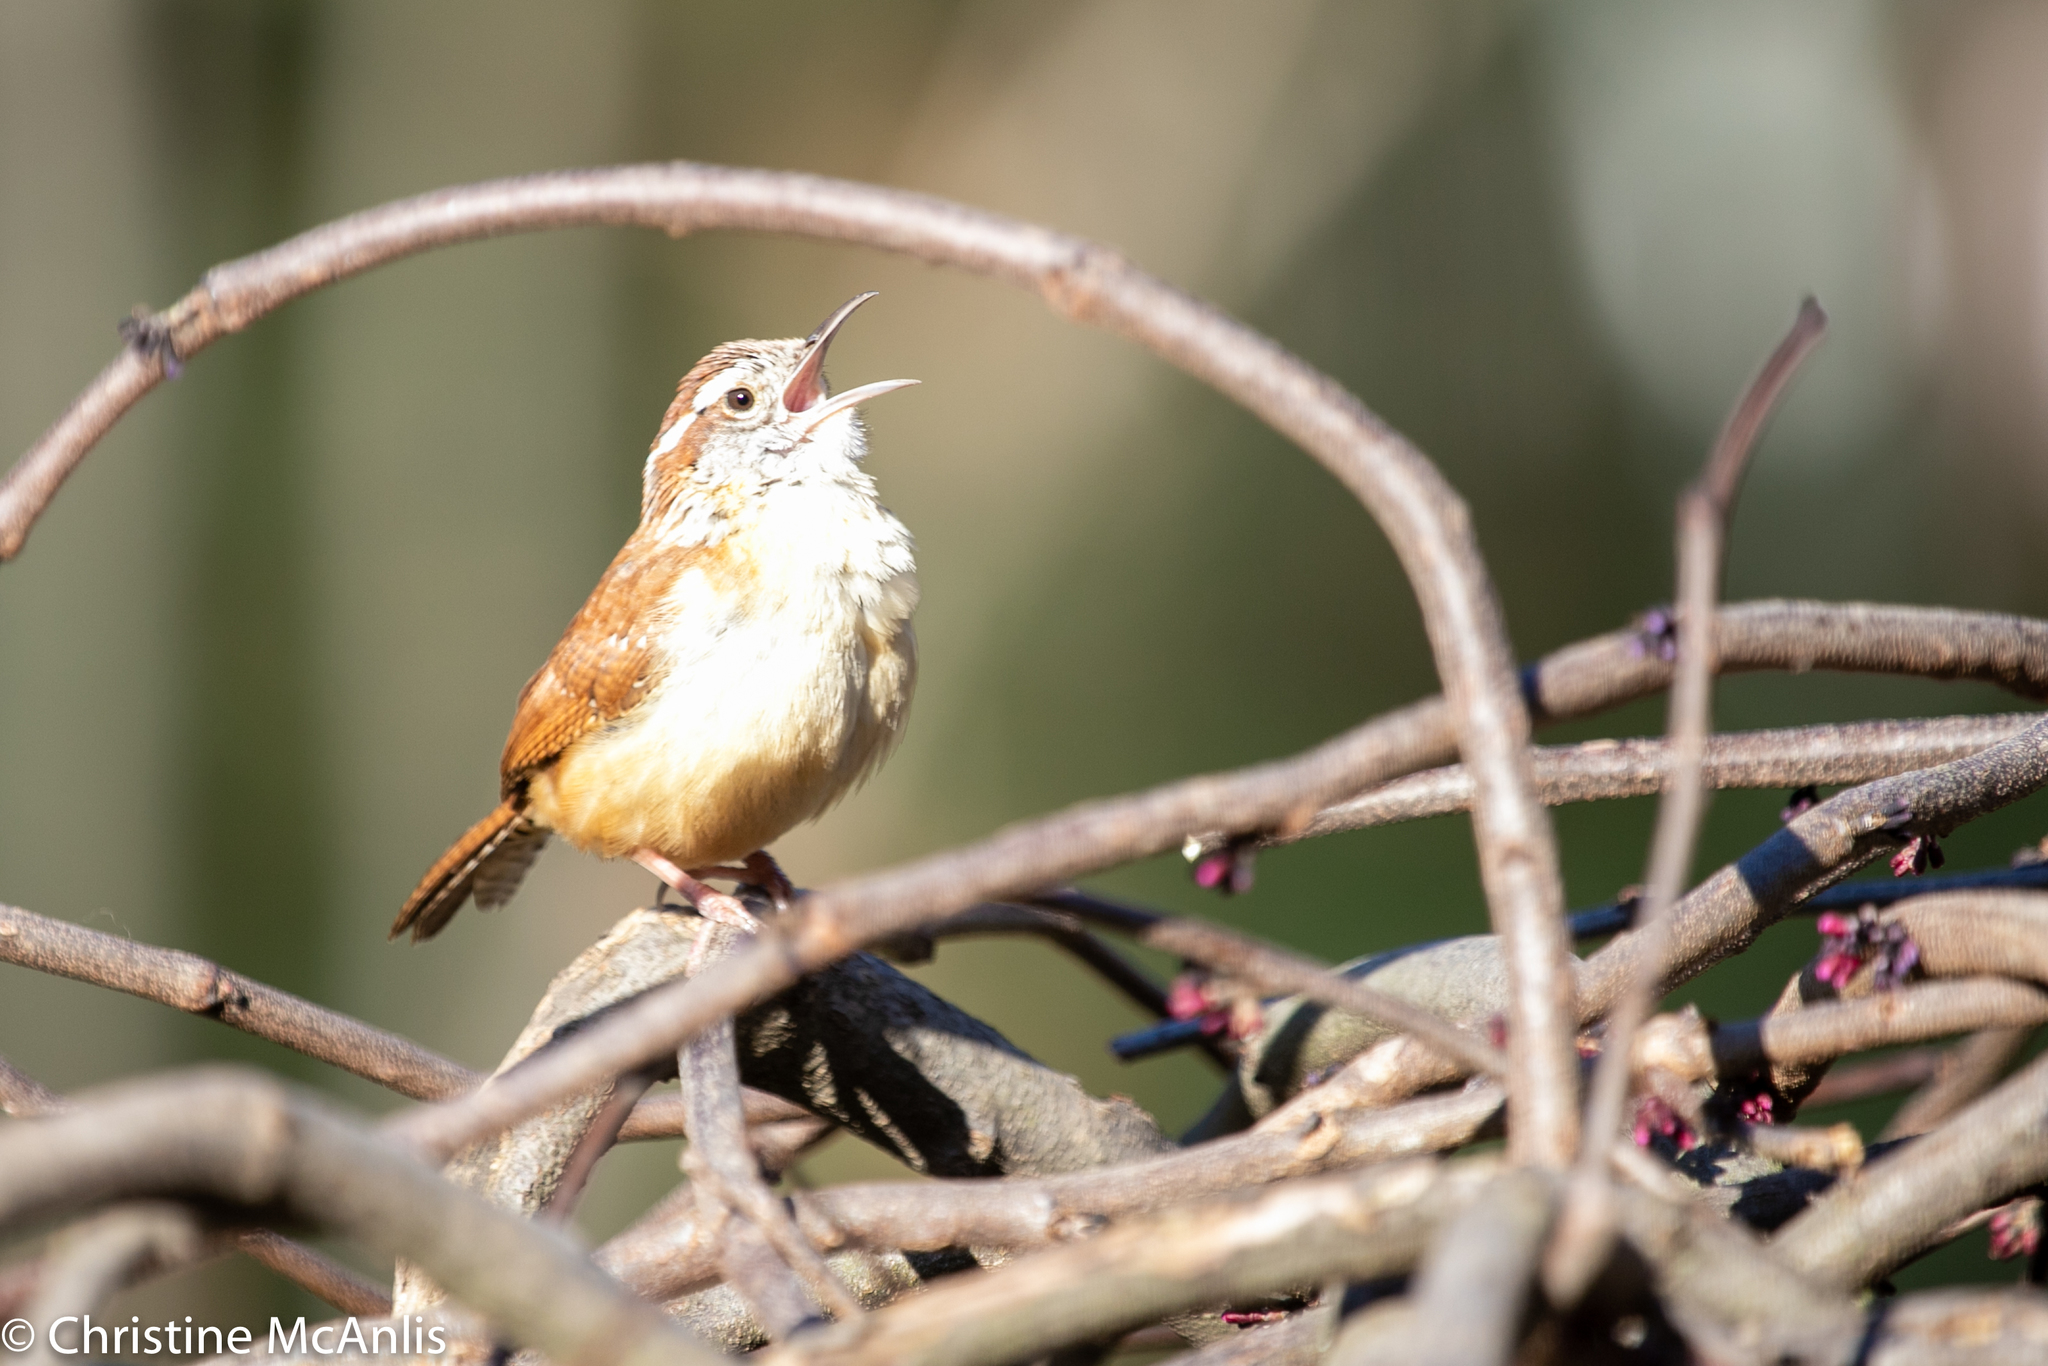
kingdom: Animalia
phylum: Chordata
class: Aves
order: Passeriformes
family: Troglodytidae
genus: Thryothorus
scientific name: Thryothorus ludovicianus
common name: Carolina wren
